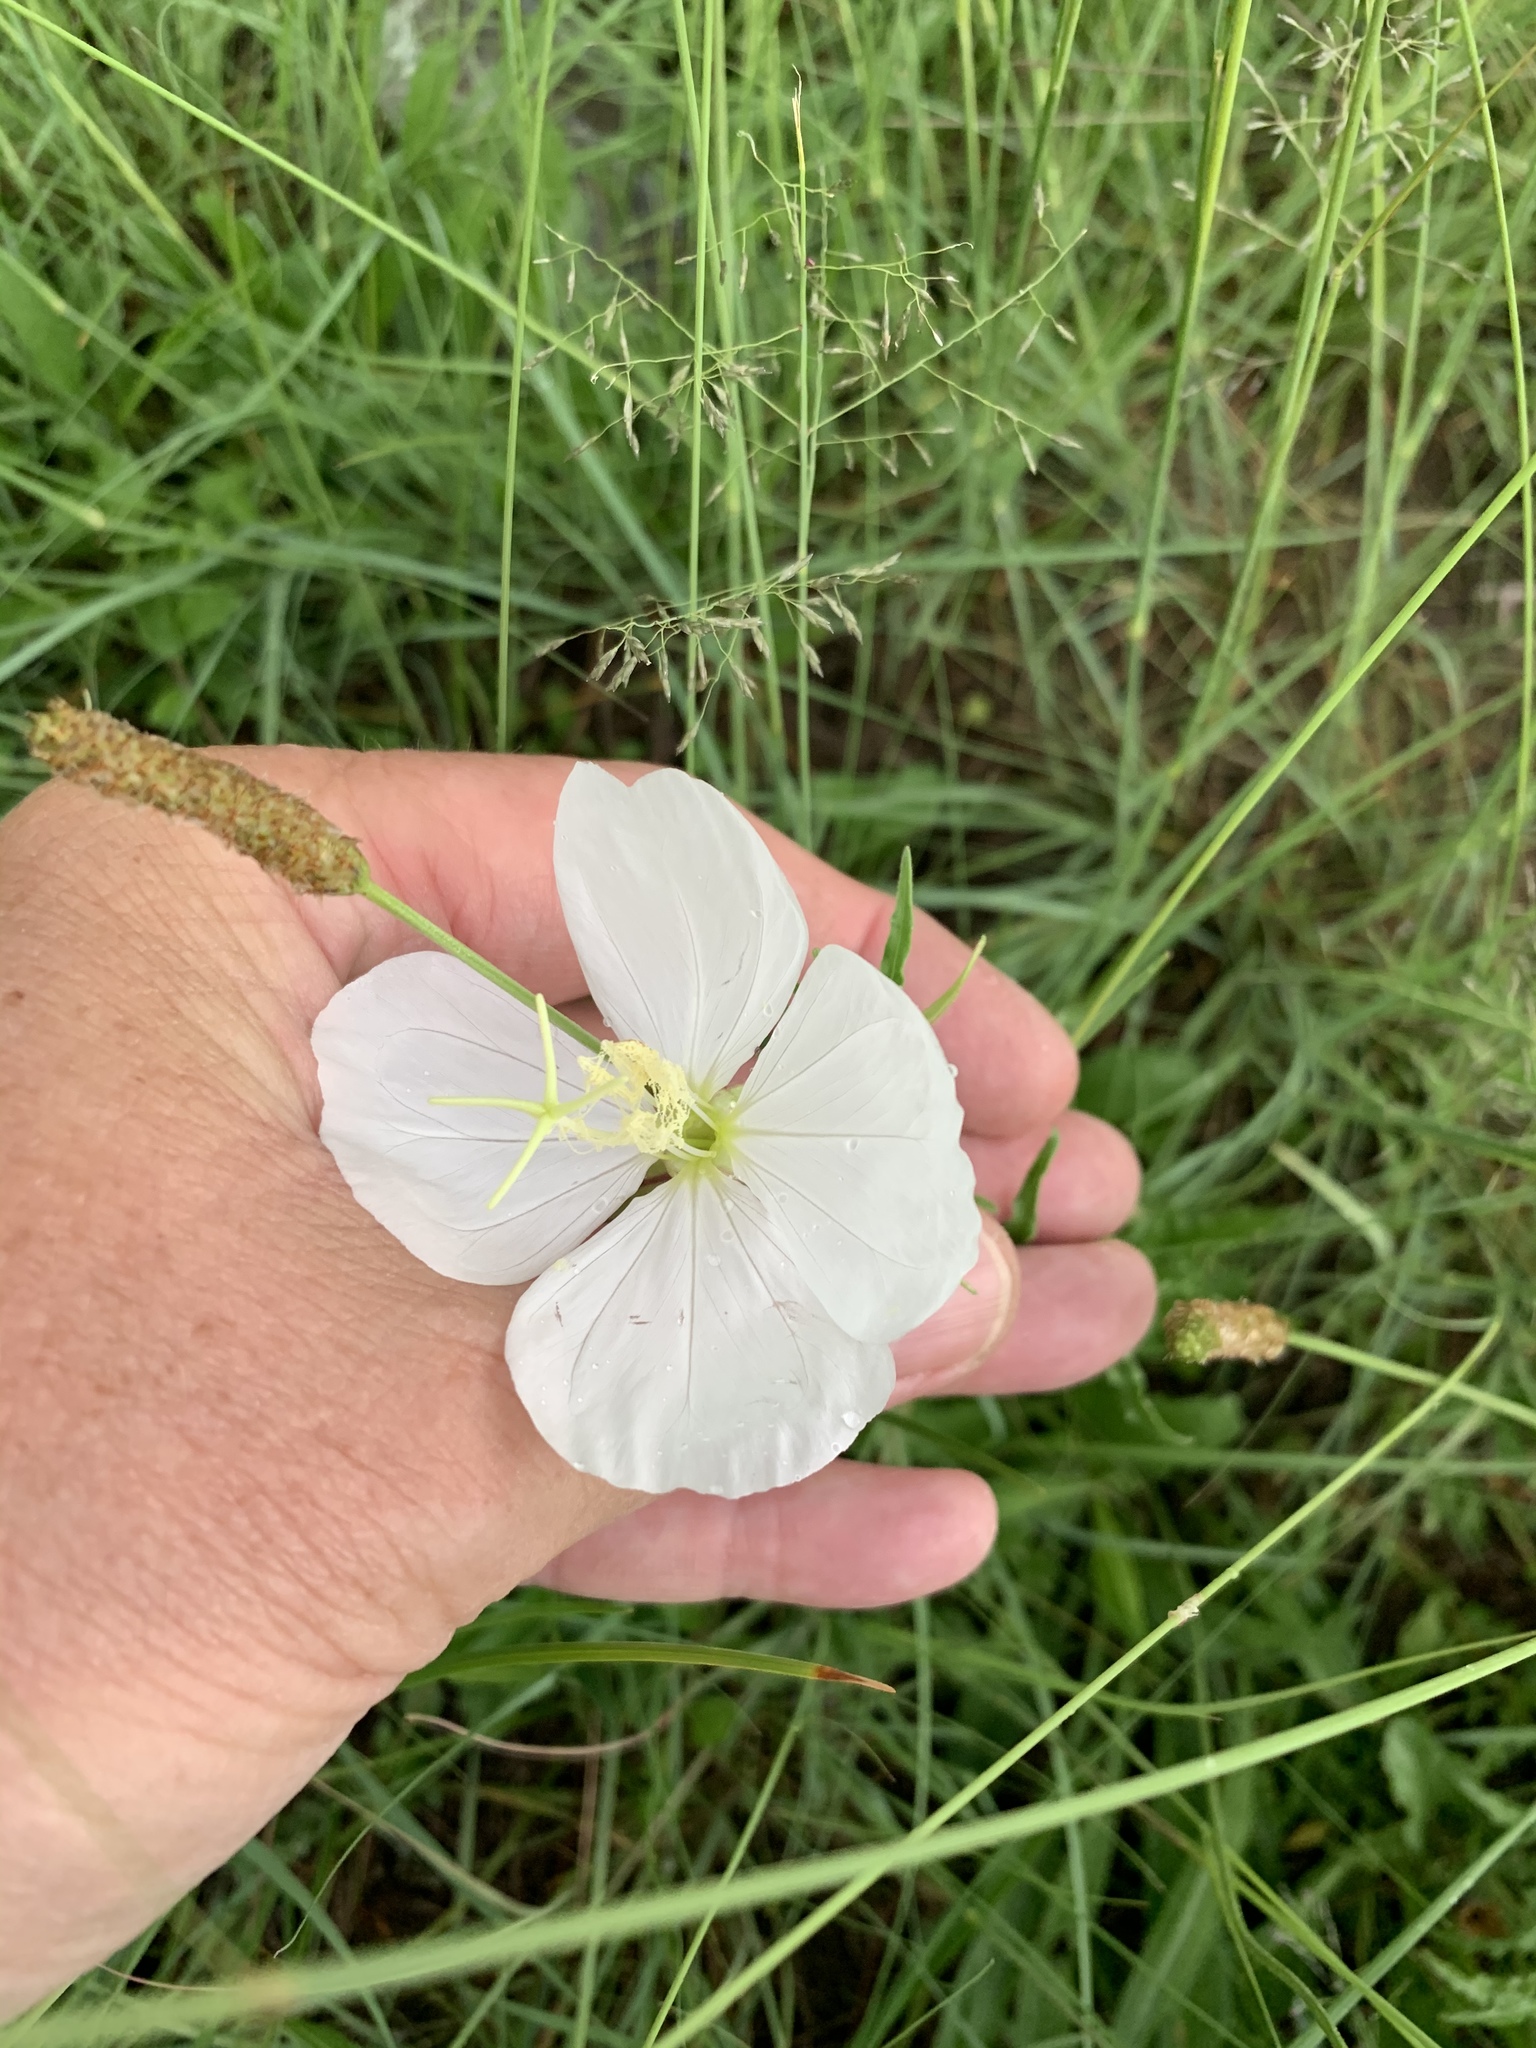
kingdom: Plantae
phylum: Tracheophyta
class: Magnoliopsida
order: Myrtales
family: Onagraceae
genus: Oenothera
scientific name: Oenothera tetraptera
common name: Four-wing evening-primrose
